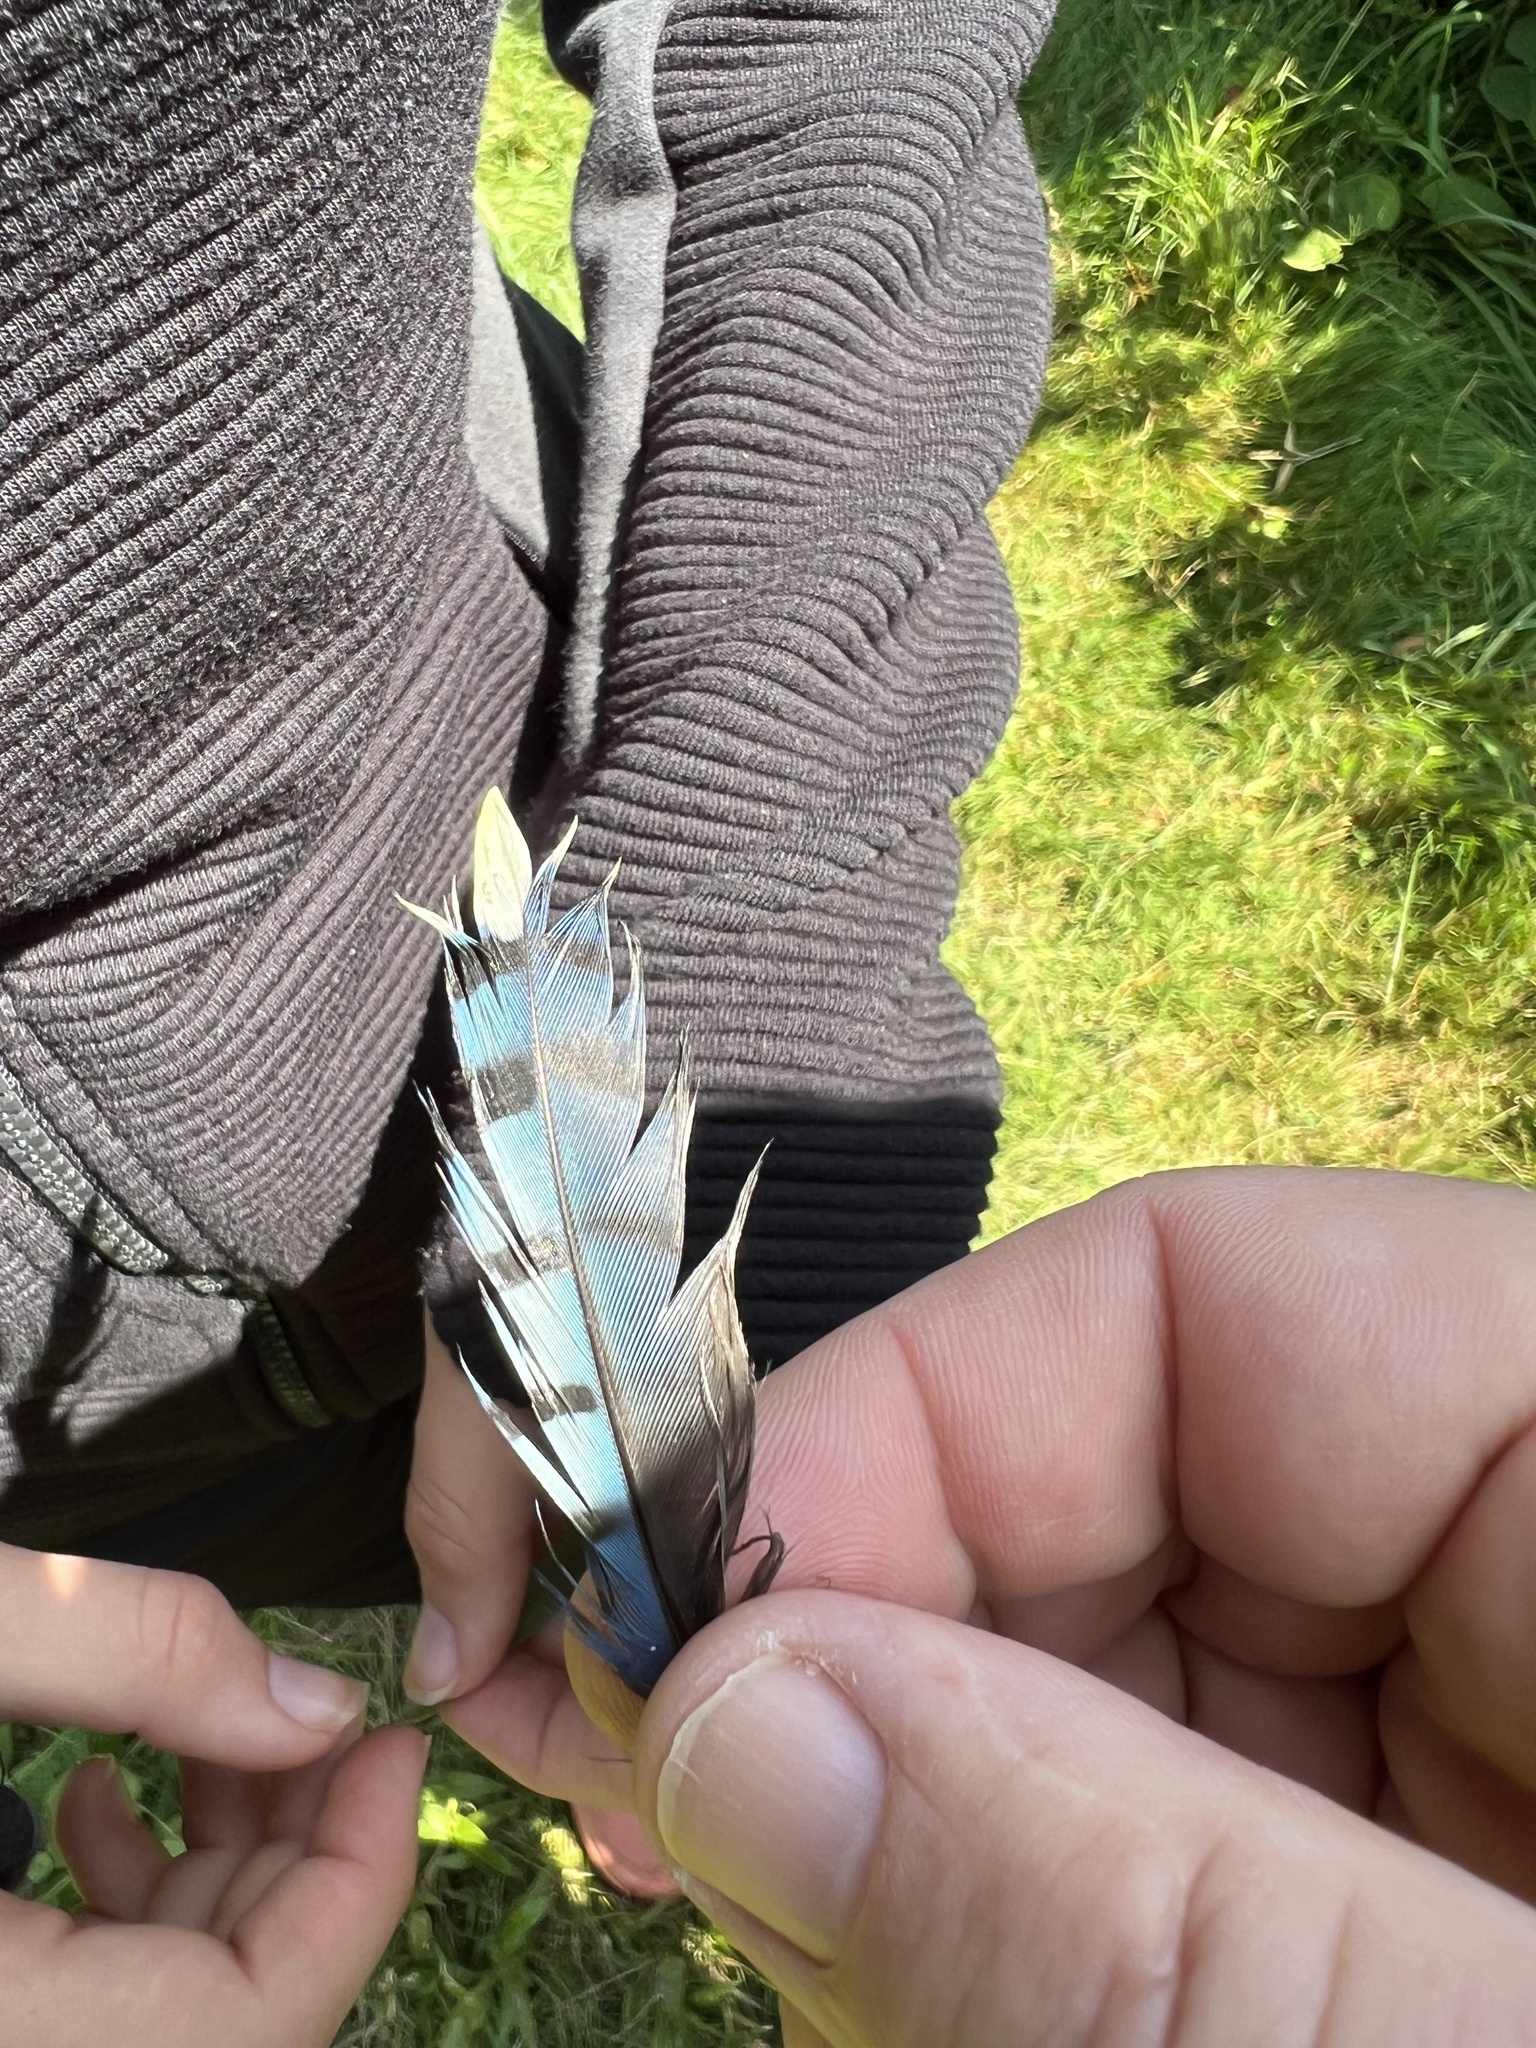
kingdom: Animalia
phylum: Chordata
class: Aves
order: Passeriformes
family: Corvidae
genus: Cyanocitta
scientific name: Cyanocitta cristata
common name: Blue jay
